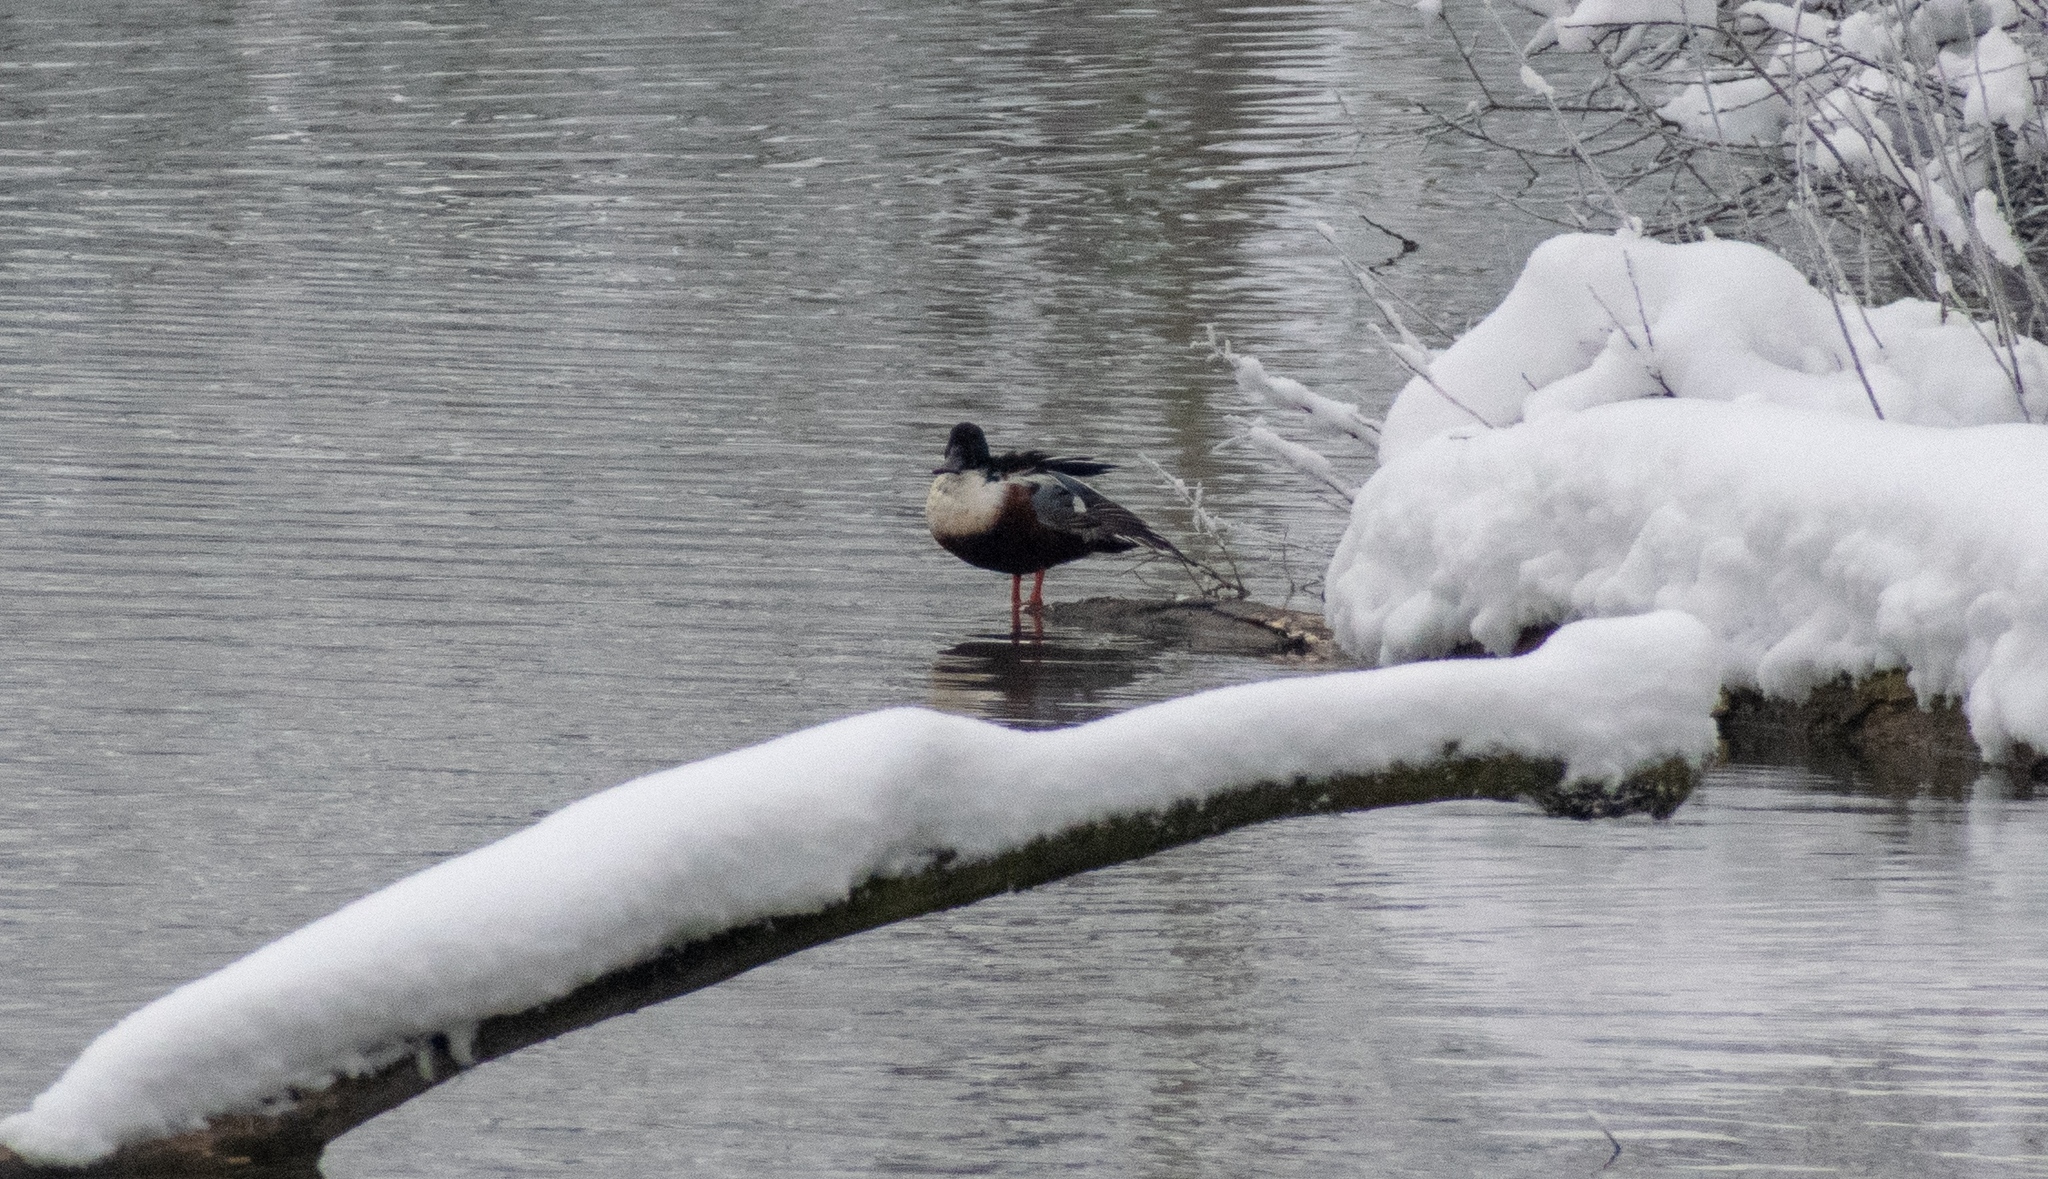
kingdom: Animalia
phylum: Chordata
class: Aves
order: Anseriformes
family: Anatidae
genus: Spatula
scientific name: Spatula clypeata
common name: Northern shoveler
